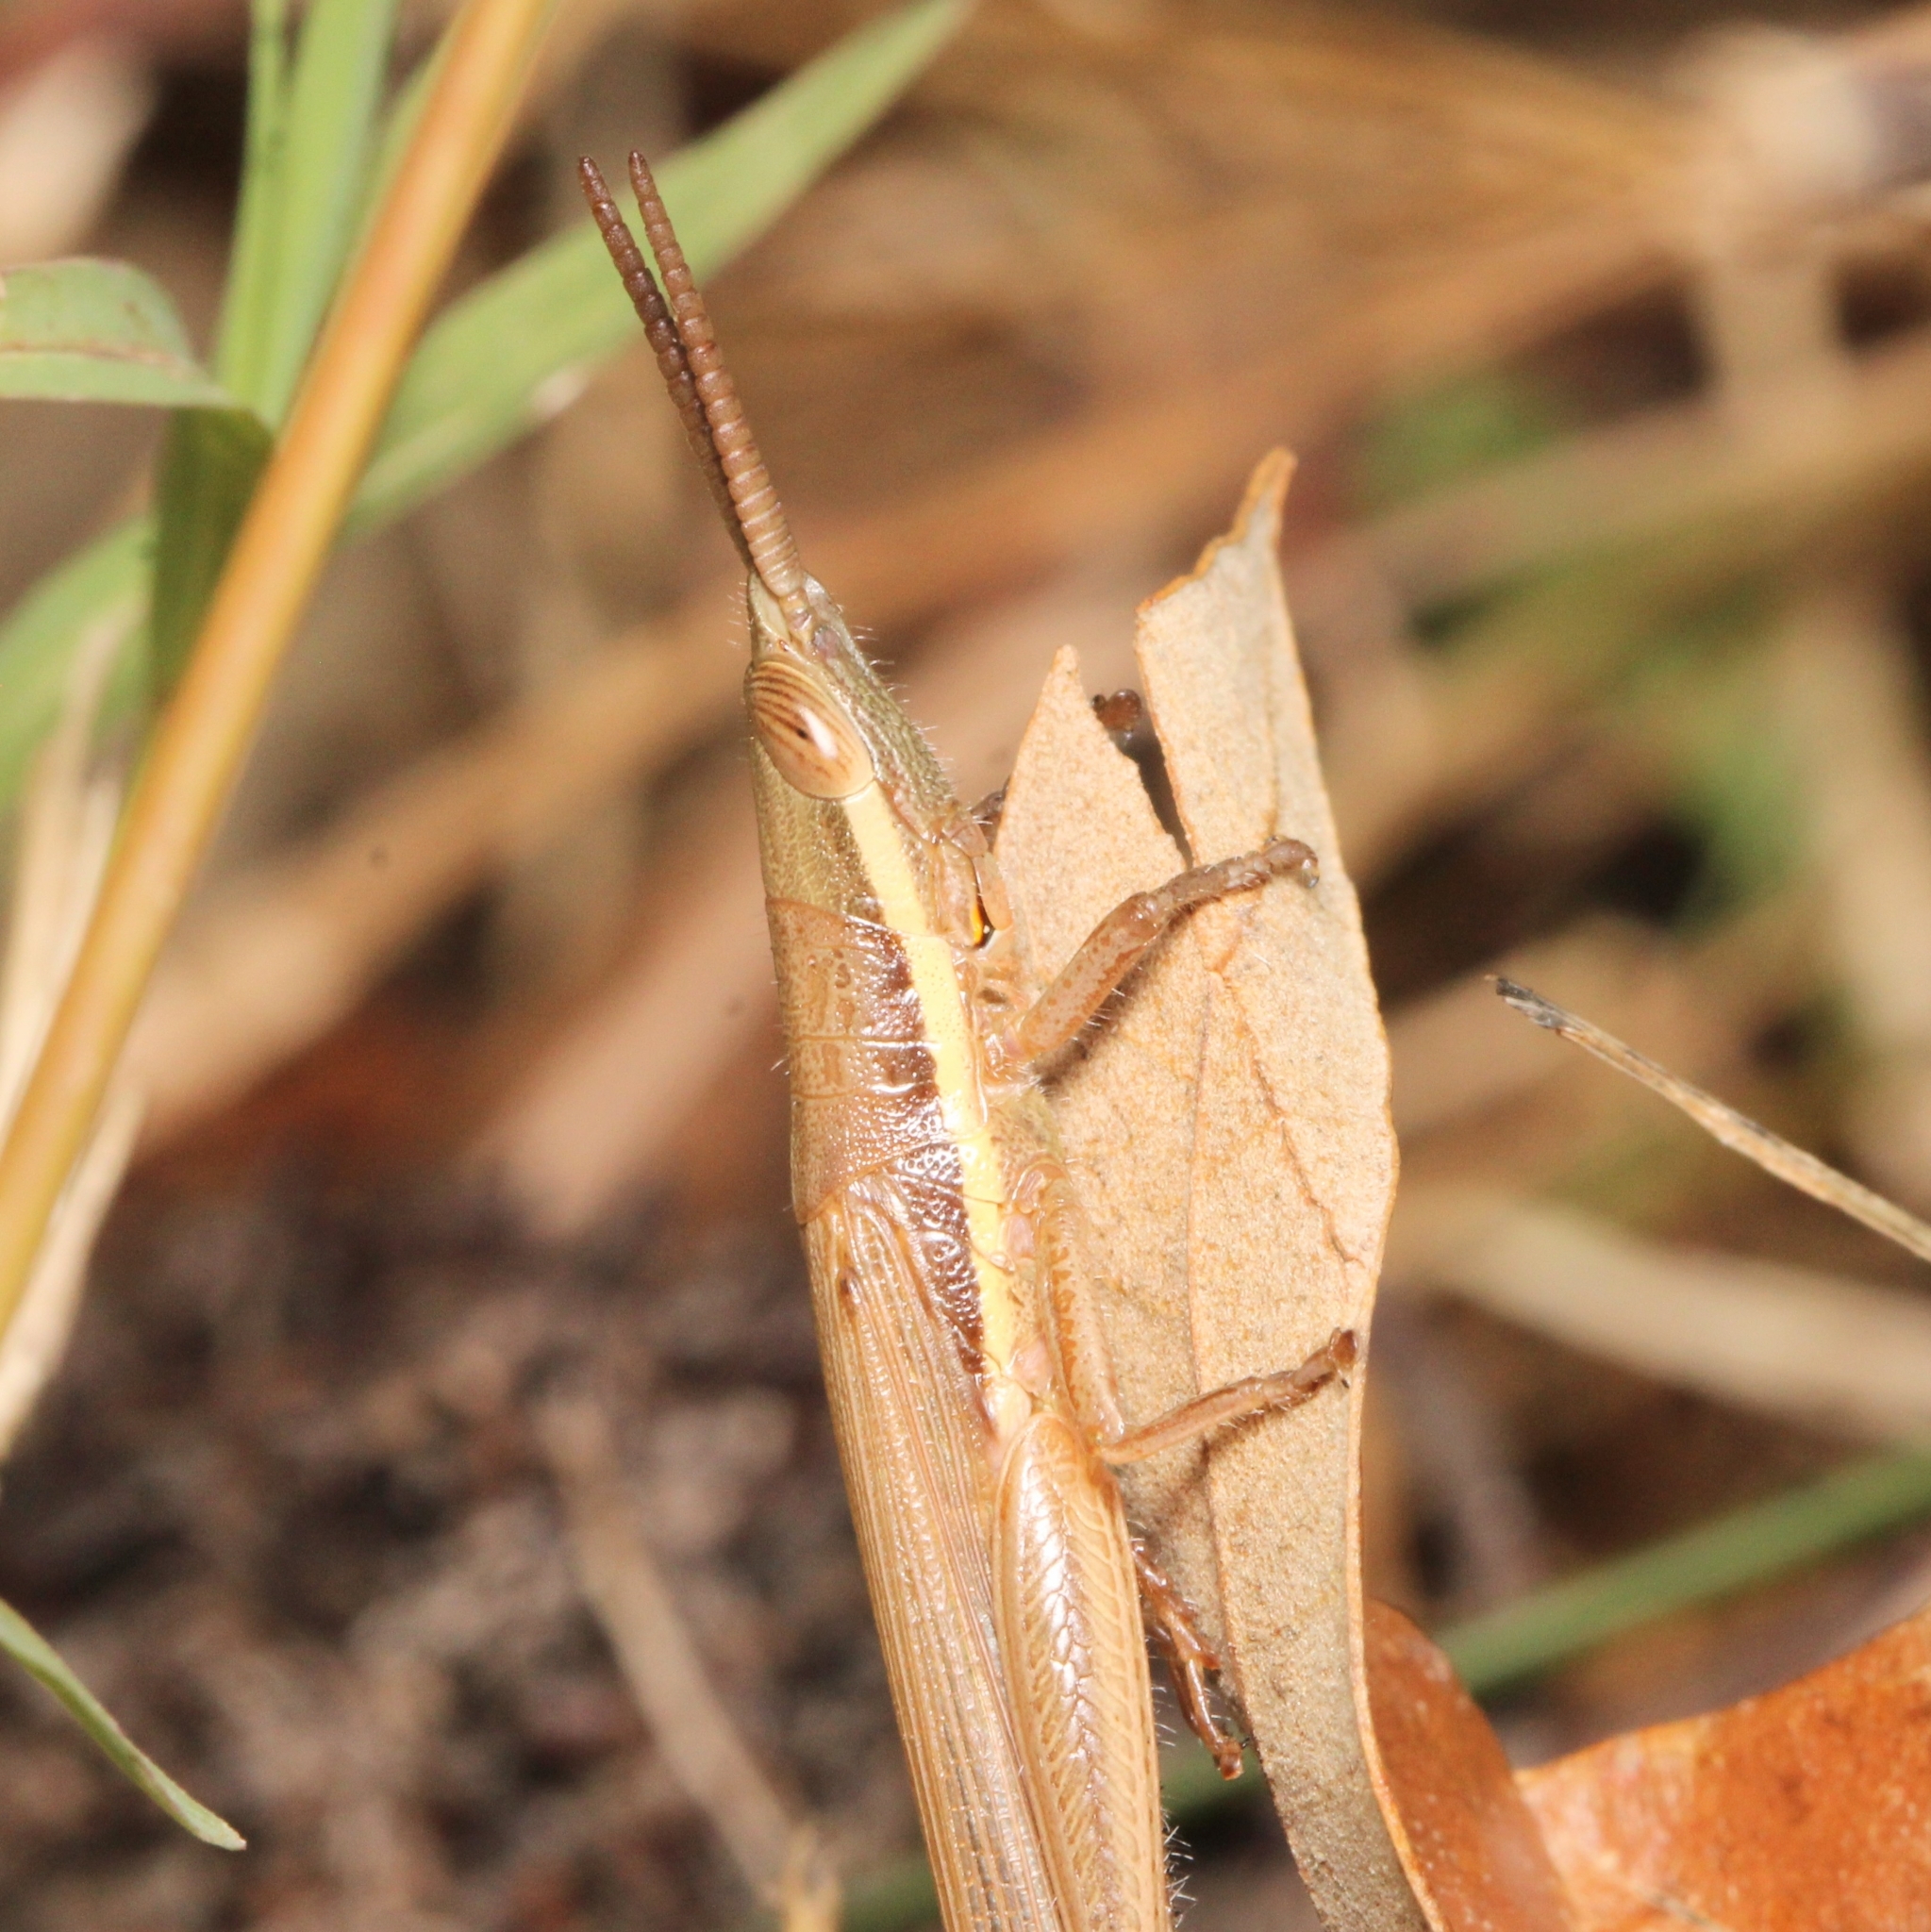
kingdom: Animalia
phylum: Arthropoda
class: Insecta
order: Orthoptera
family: Acrididae
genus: Leptysma
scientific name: Leptysma marginicollis
